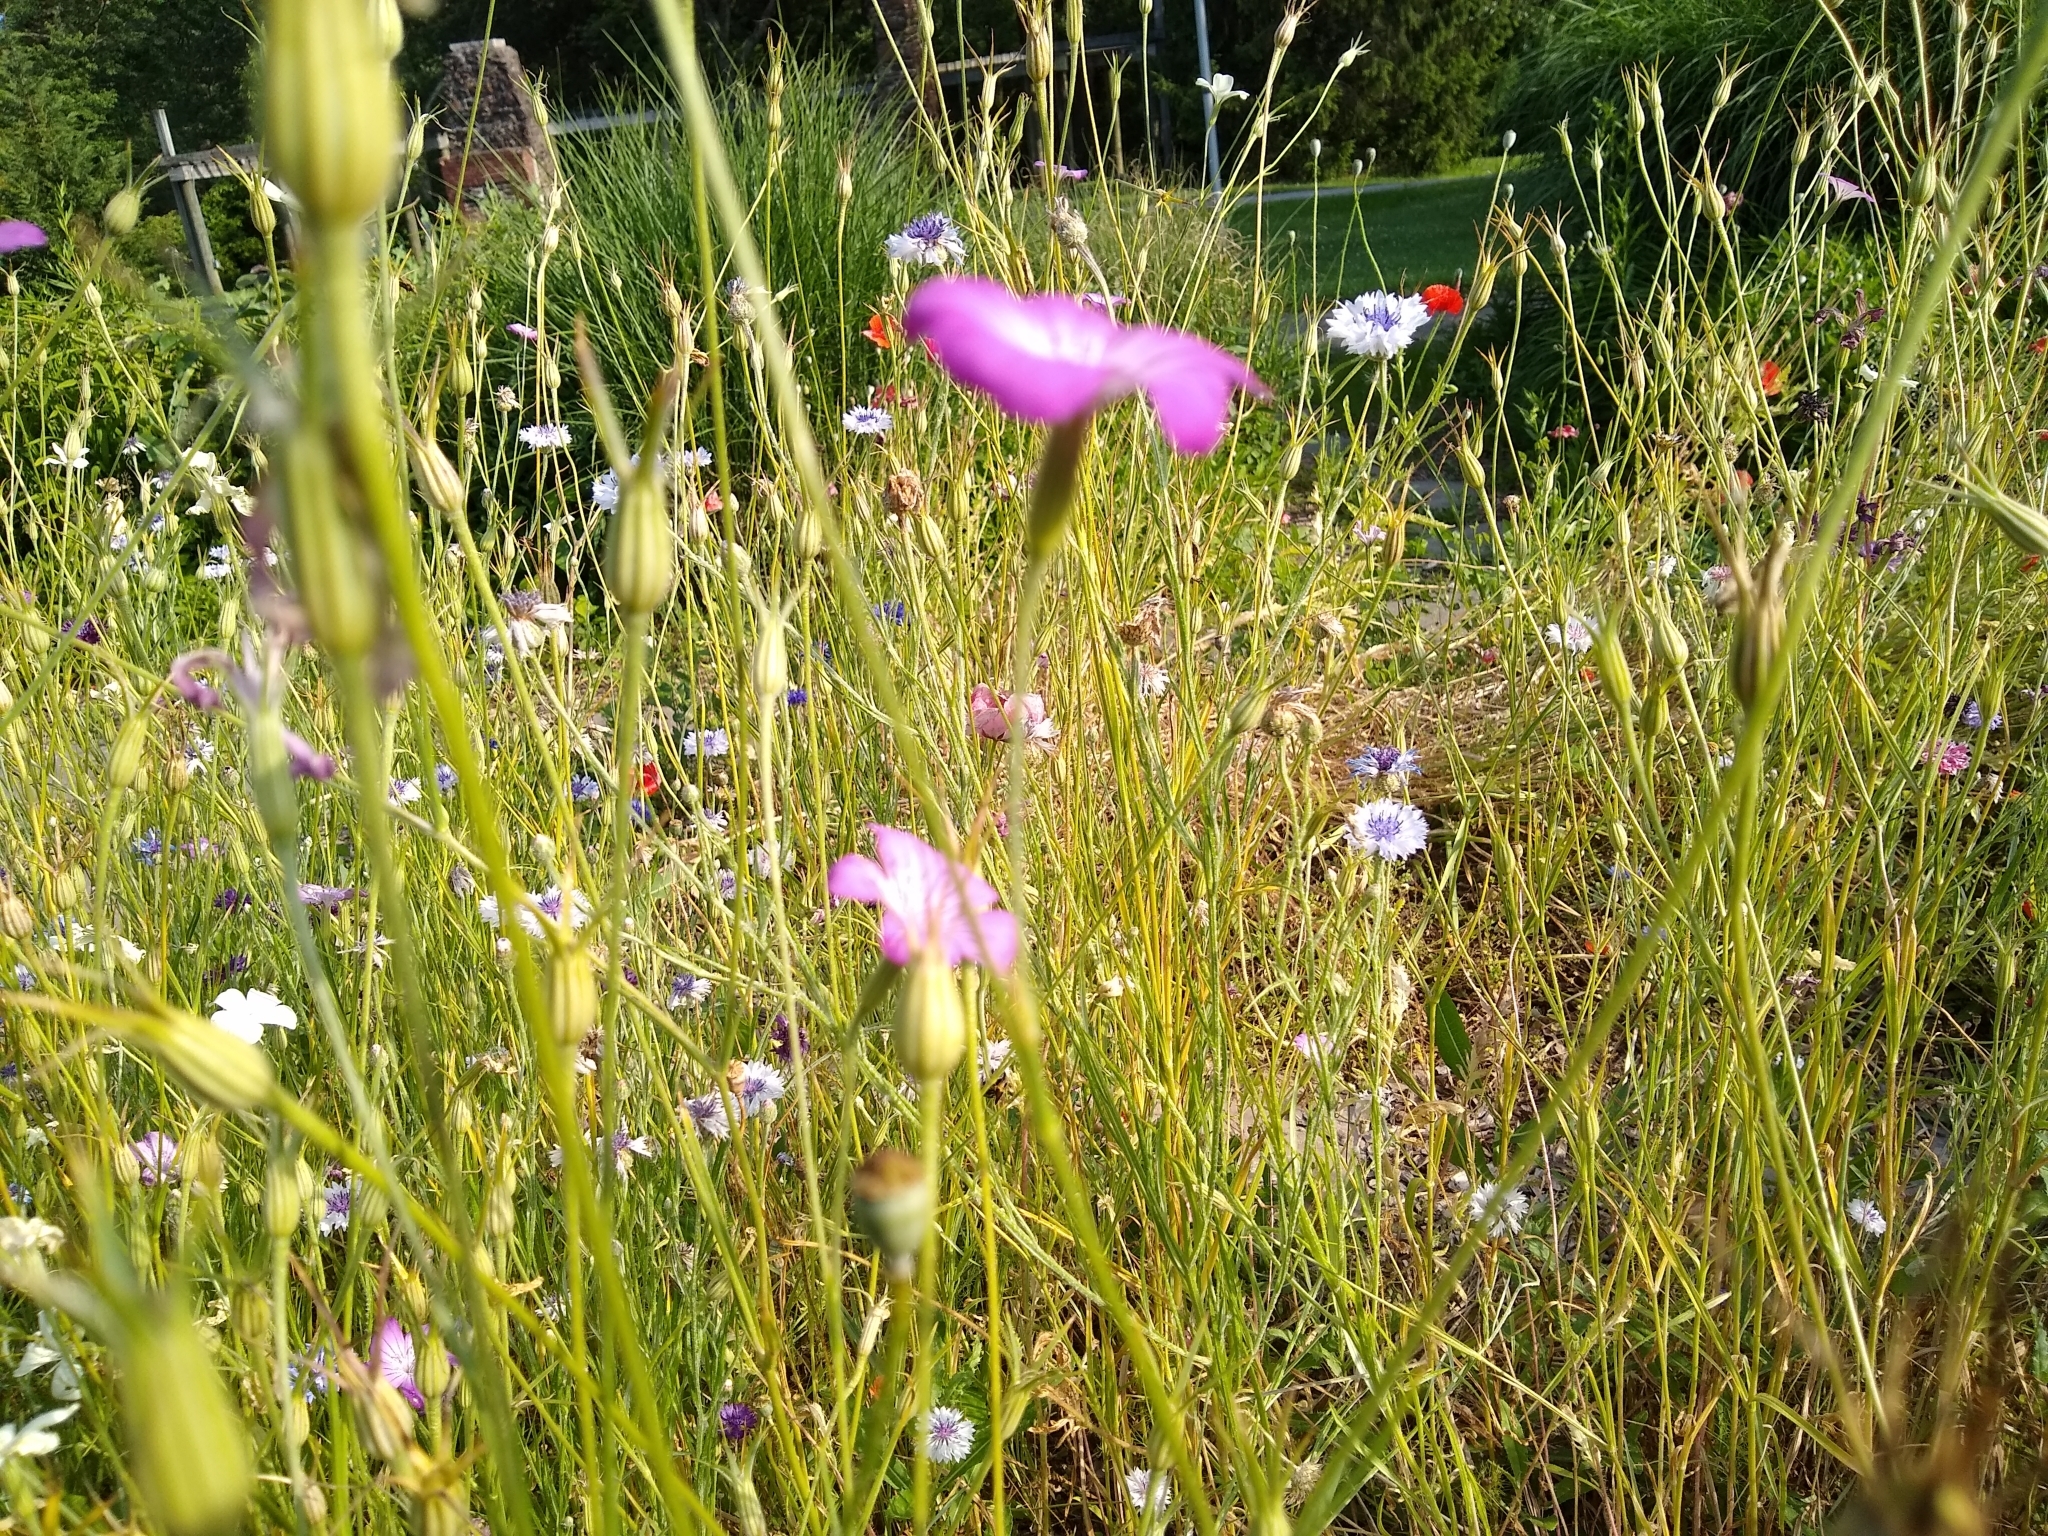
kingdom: Plantae
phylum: Tracheophyta
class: Magnoliopsida
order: Caryophyllales
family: Caryophyllaceae
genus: Agrostemma
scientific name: Agrostemma githago
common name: Common corncockle
